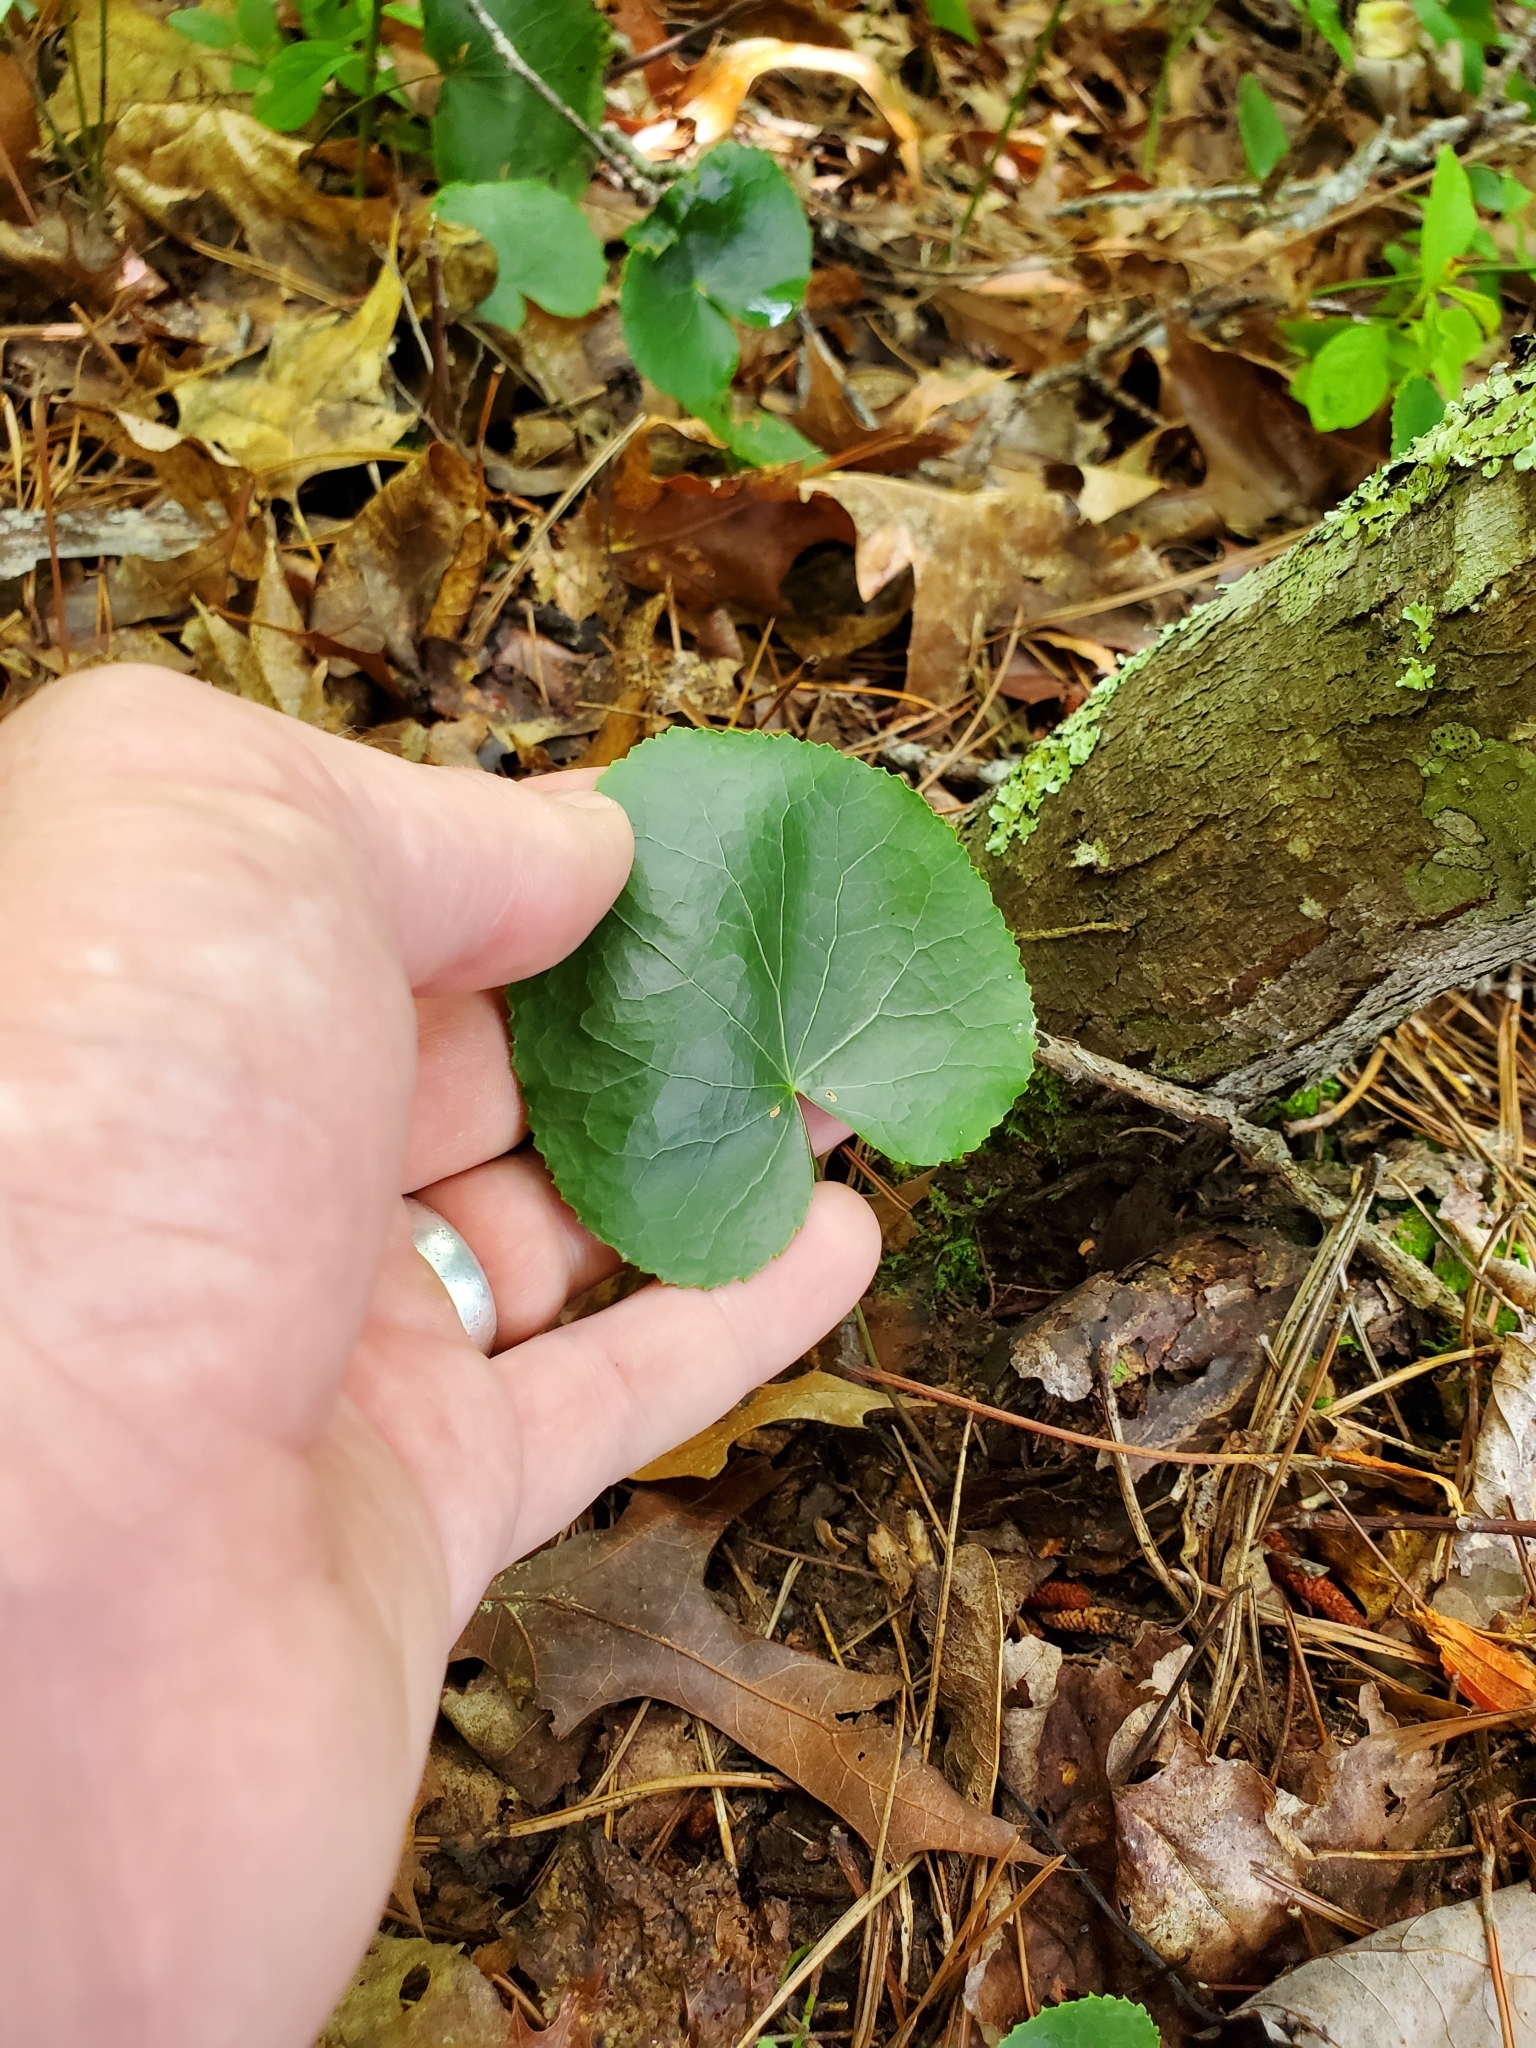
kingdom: Plantae
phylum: Tracheophyta
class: Magnoliopsida
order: Ericales
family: Diapensiaceae
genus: Galax
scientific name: Galax urceolata
